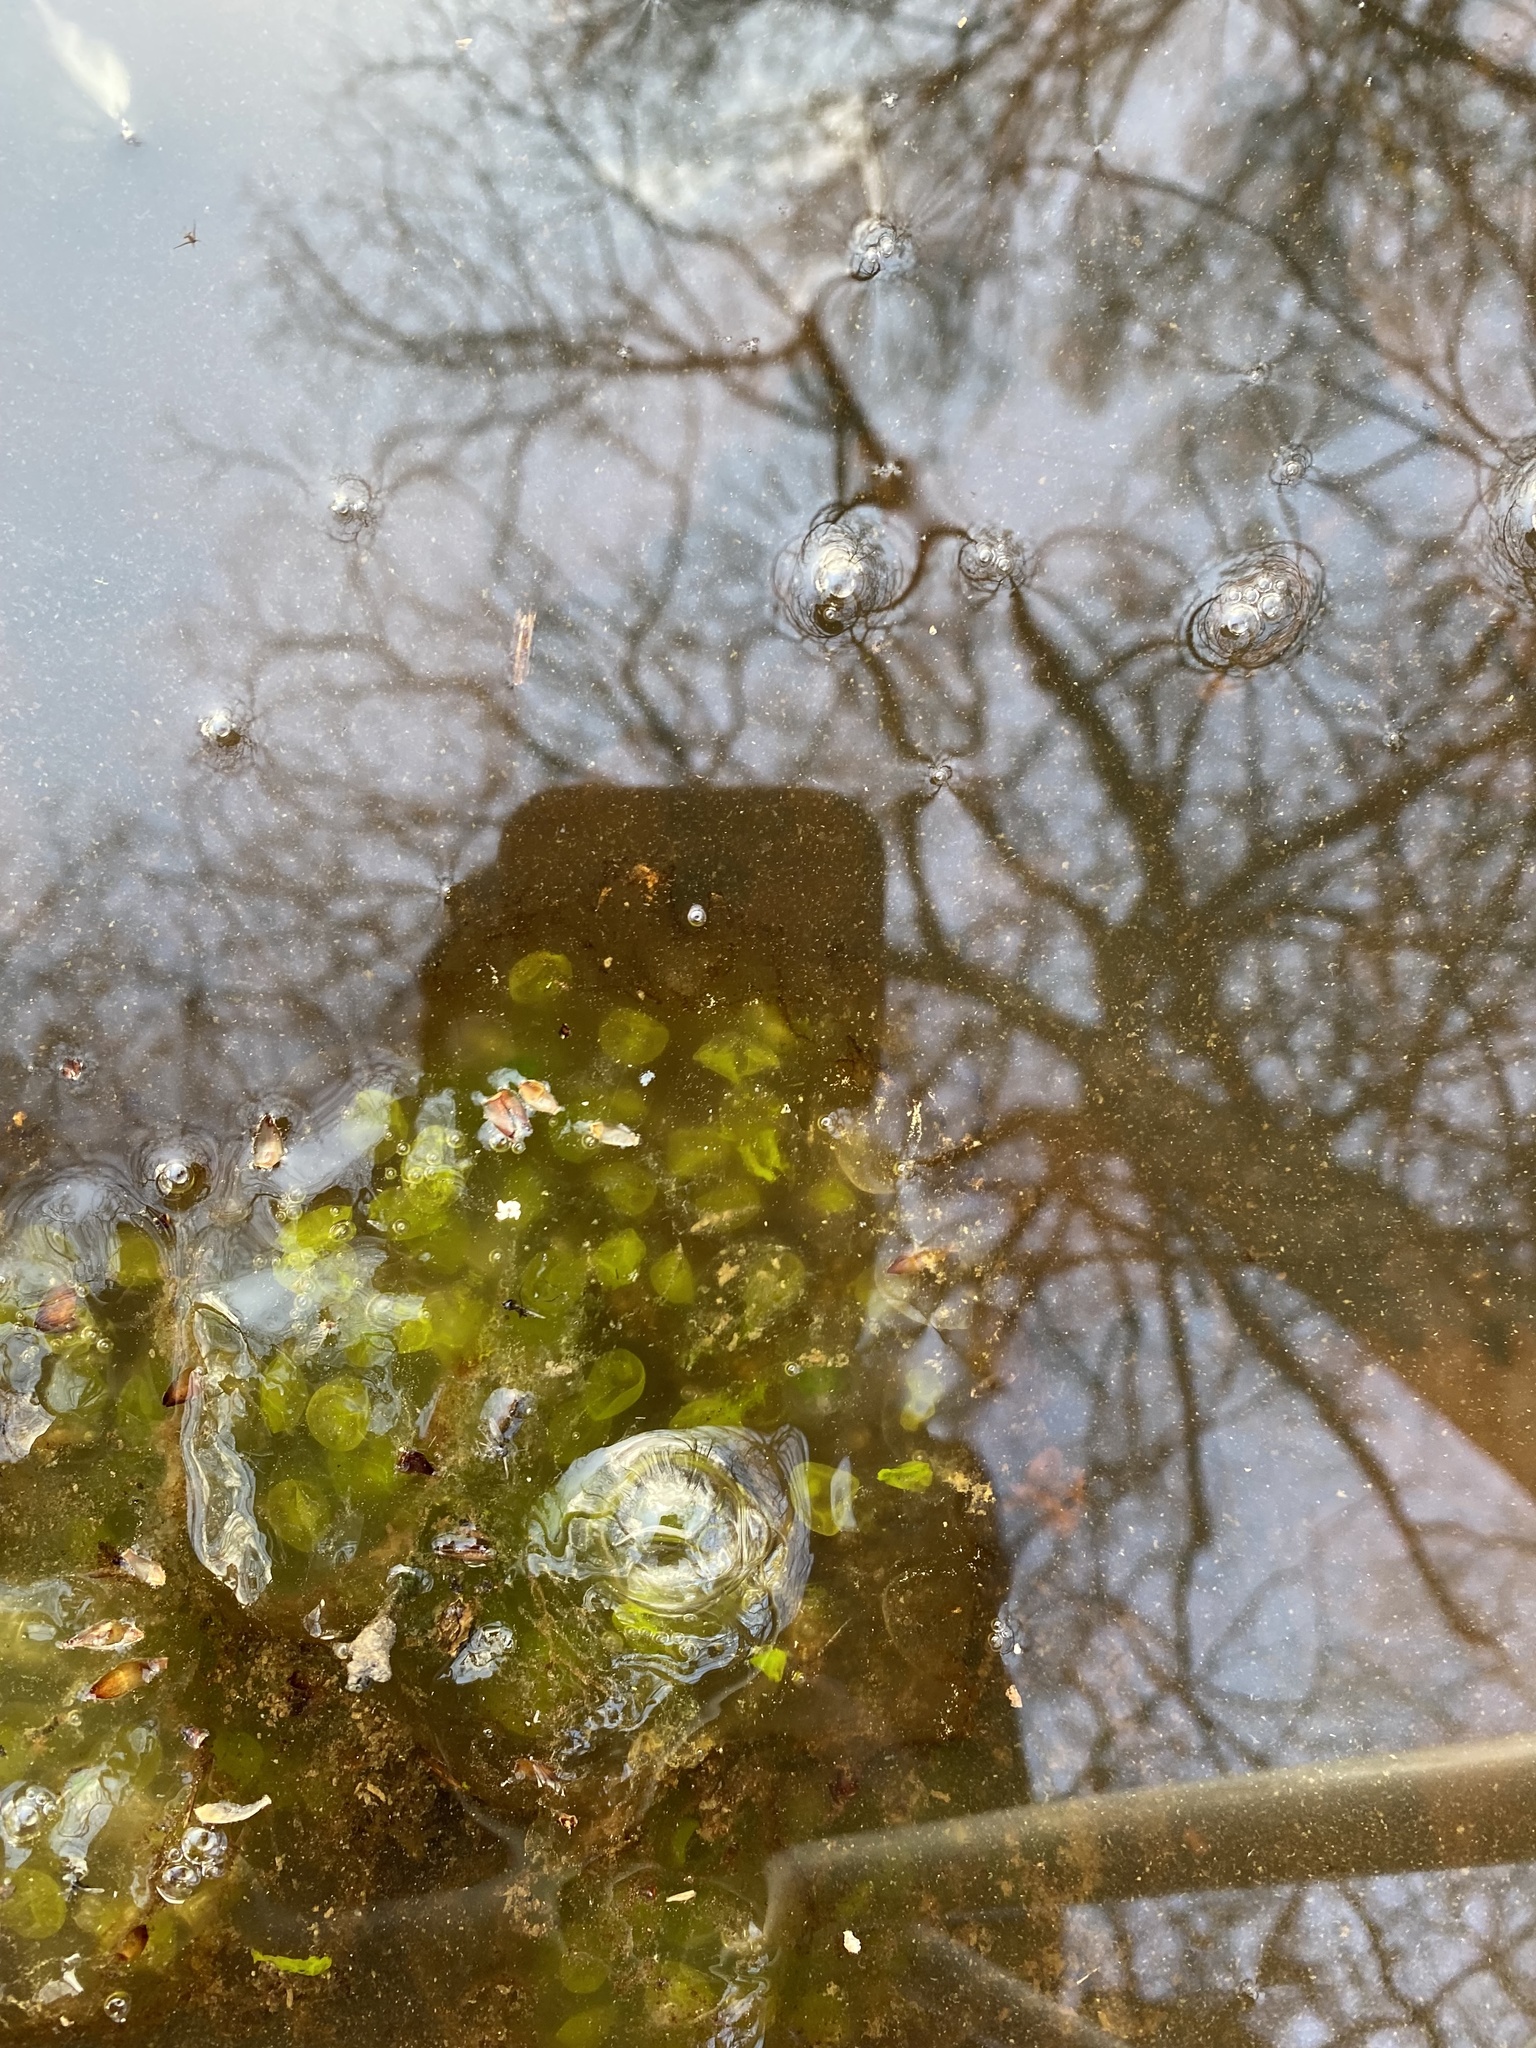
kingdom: Animalia
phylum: Chordata
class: Amphibia
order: Caudata
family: Ambystomatidae
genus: Ambystoma
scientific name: Ambystoma maculatum
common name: Spotted salamander
